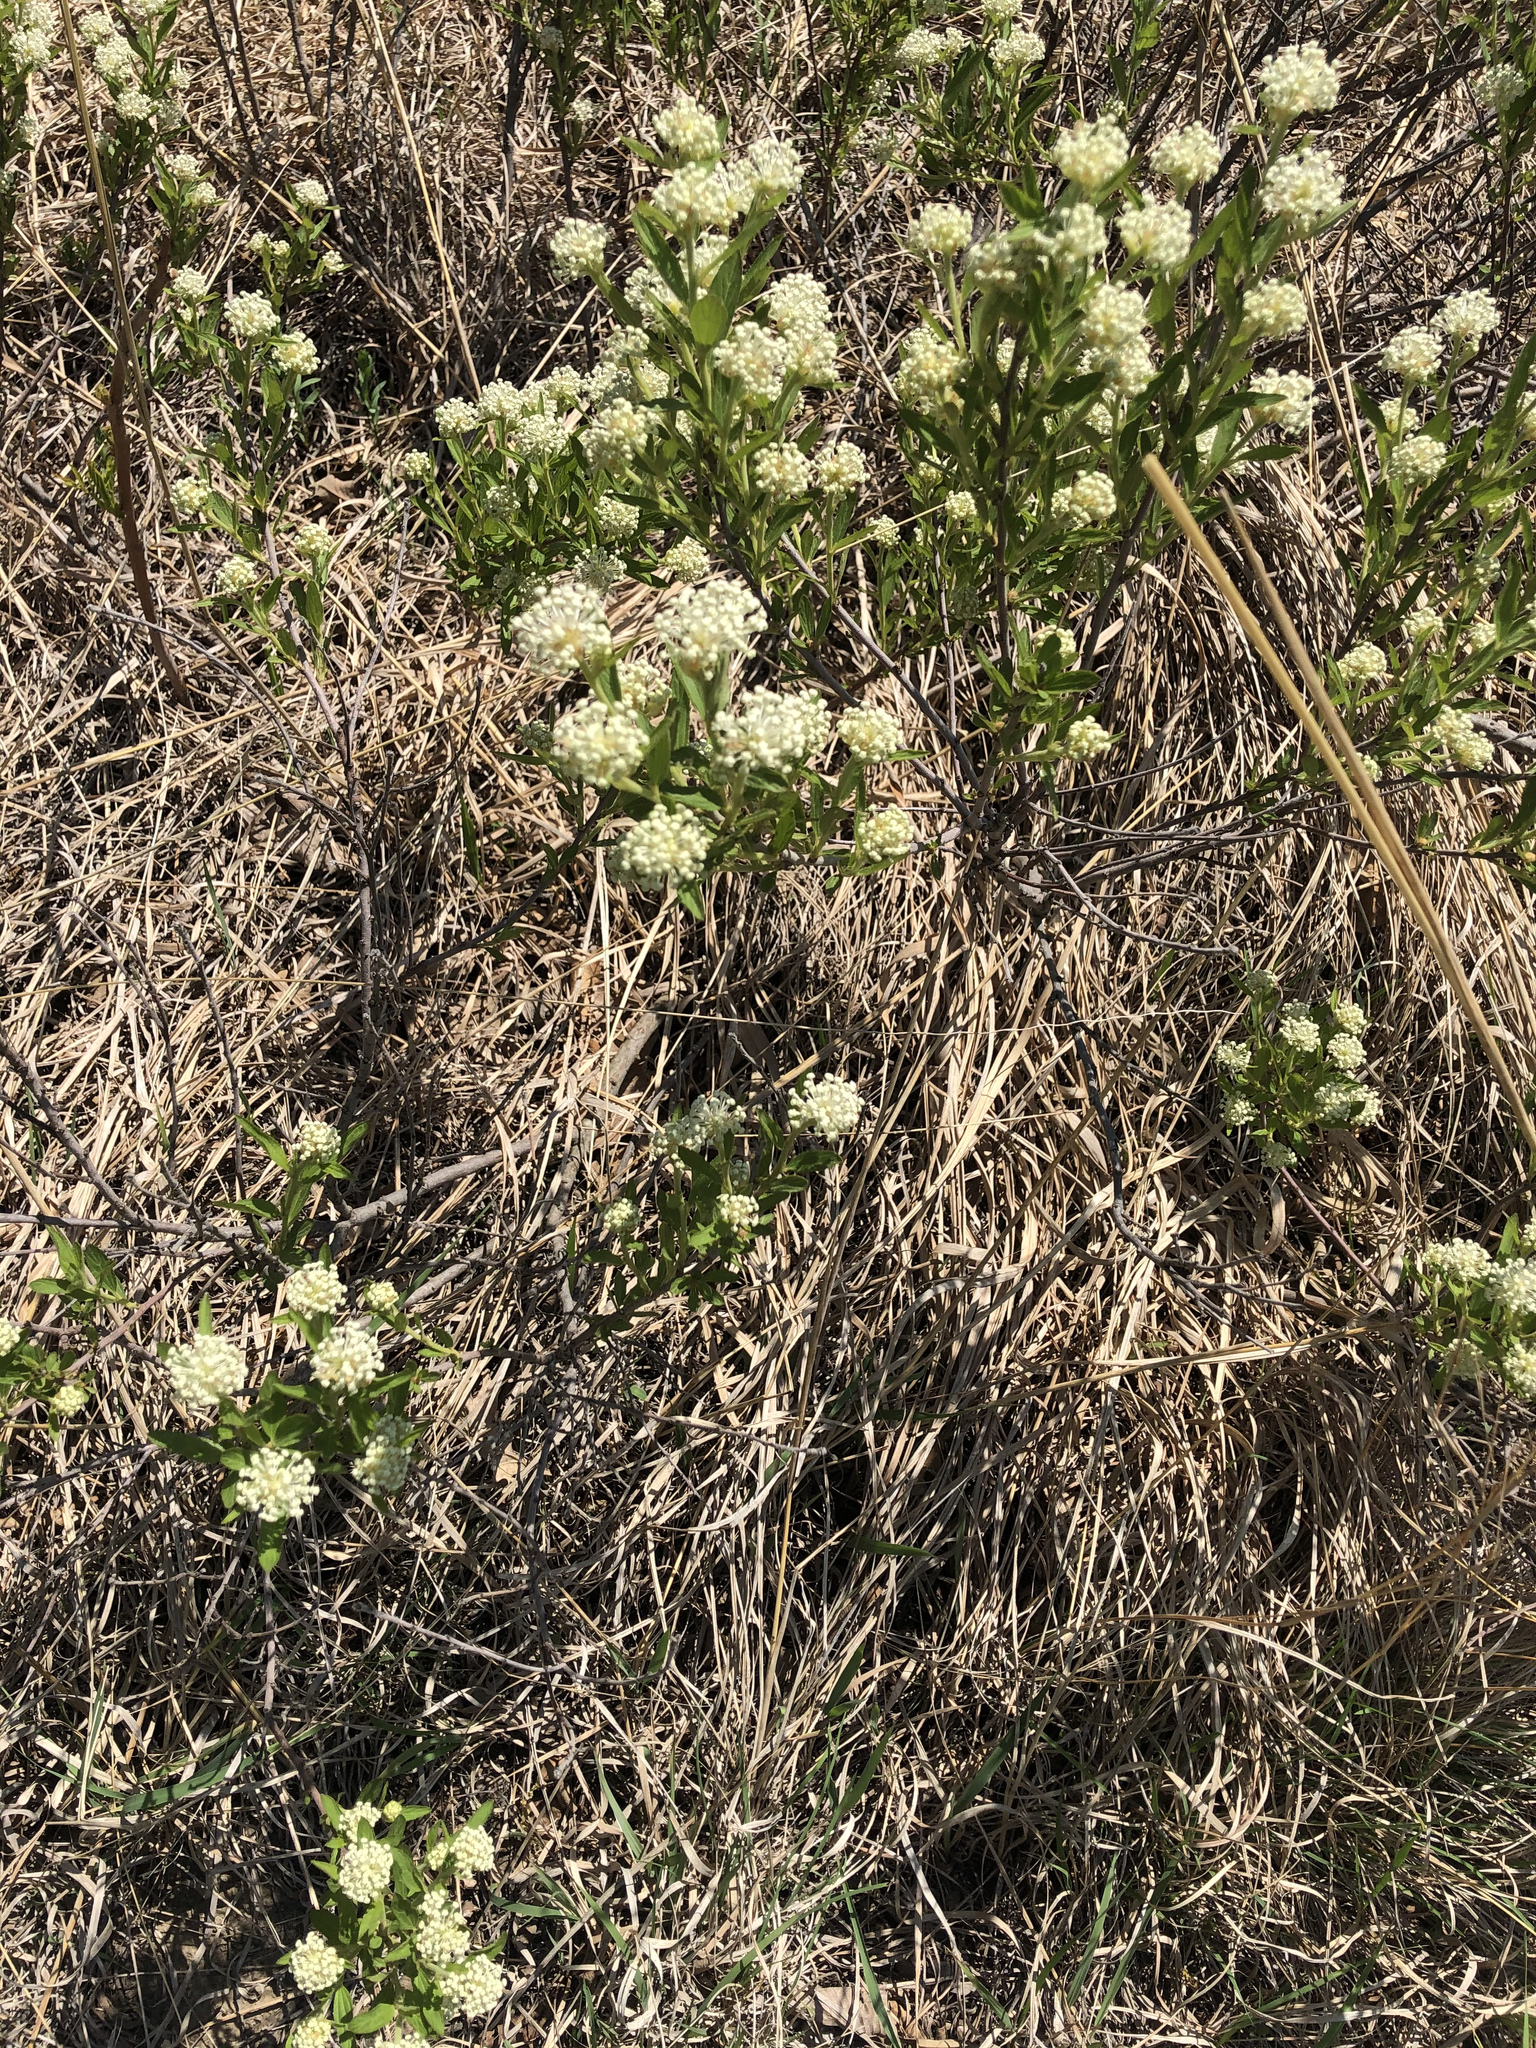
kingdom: Plantae
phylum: Tracheophyta
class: Magnoliopsida
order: Rosales
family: Rhamnaceae
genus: Ceanothus
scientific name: Ceanothus herbaceus
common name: Inland ceanothus
